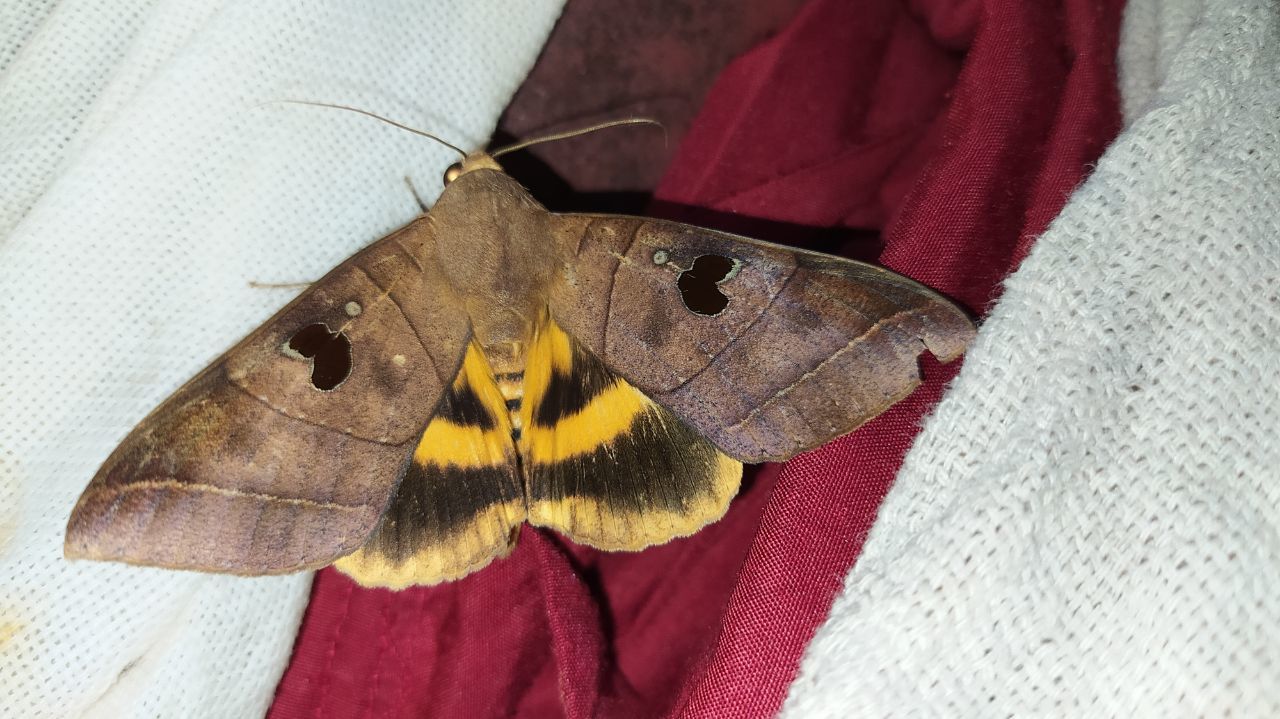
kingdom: Animalia
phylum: Arthropoda
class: Insecta
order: Lepidoptera
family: Erebidae
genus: Thyas
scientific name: Thyas coronata
